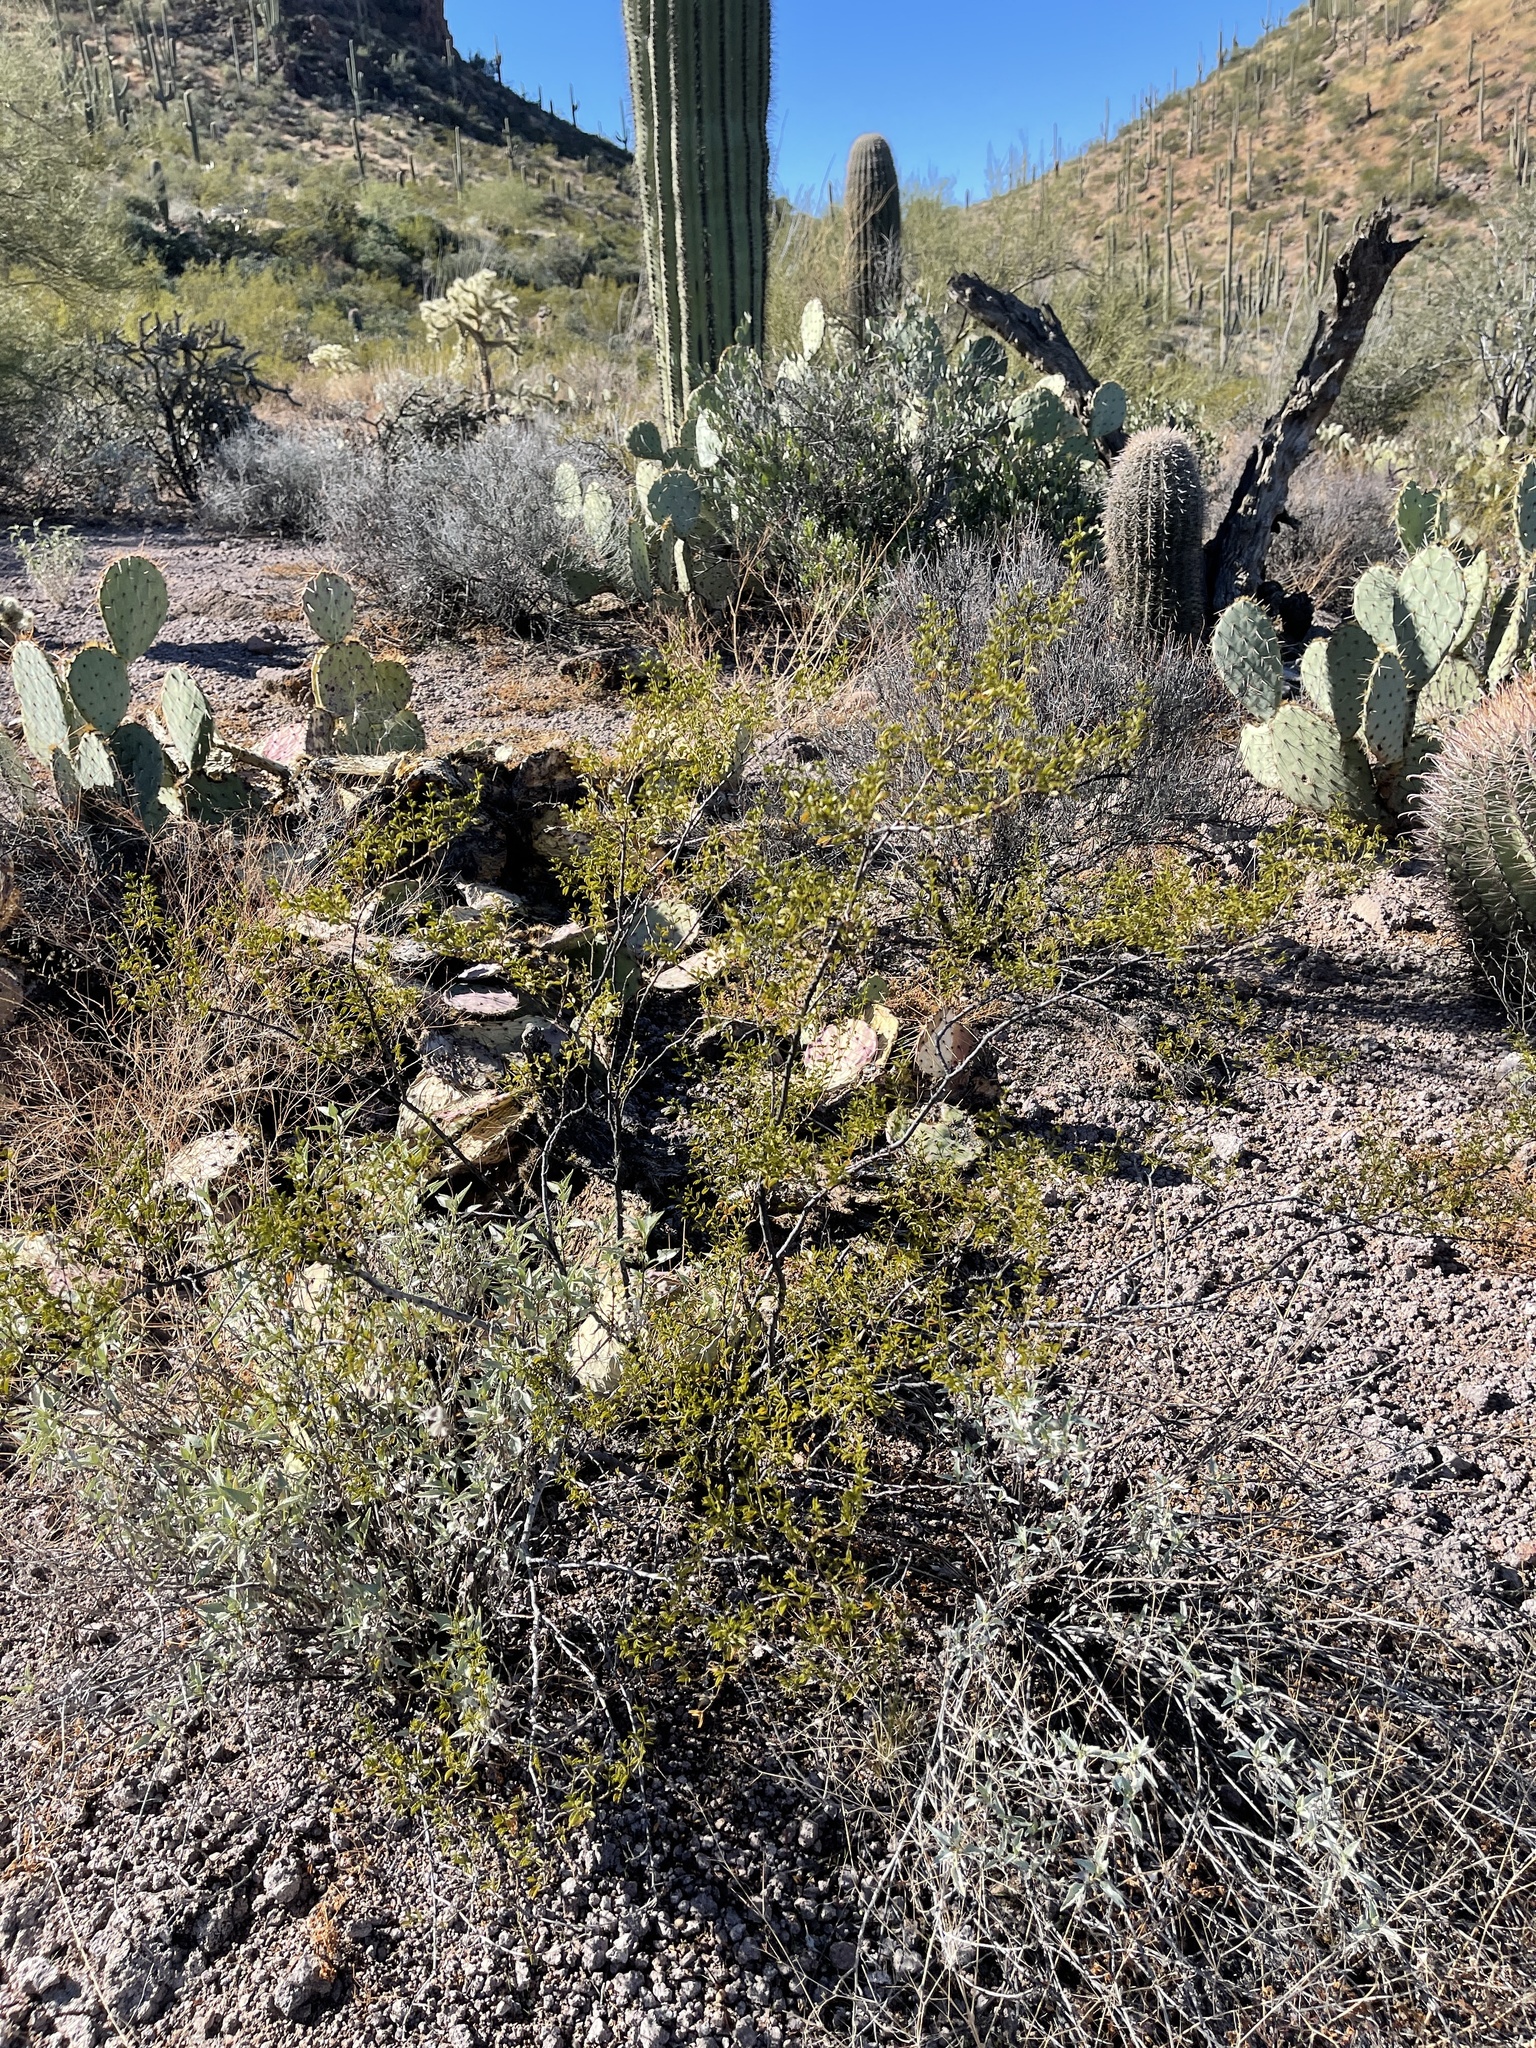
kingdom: Plantae
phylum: Tracheophyta
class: Magnoliopsida
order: Zygophyllales
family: Zygophyllaceae
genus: Larrea
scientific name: Larrea tridentata
